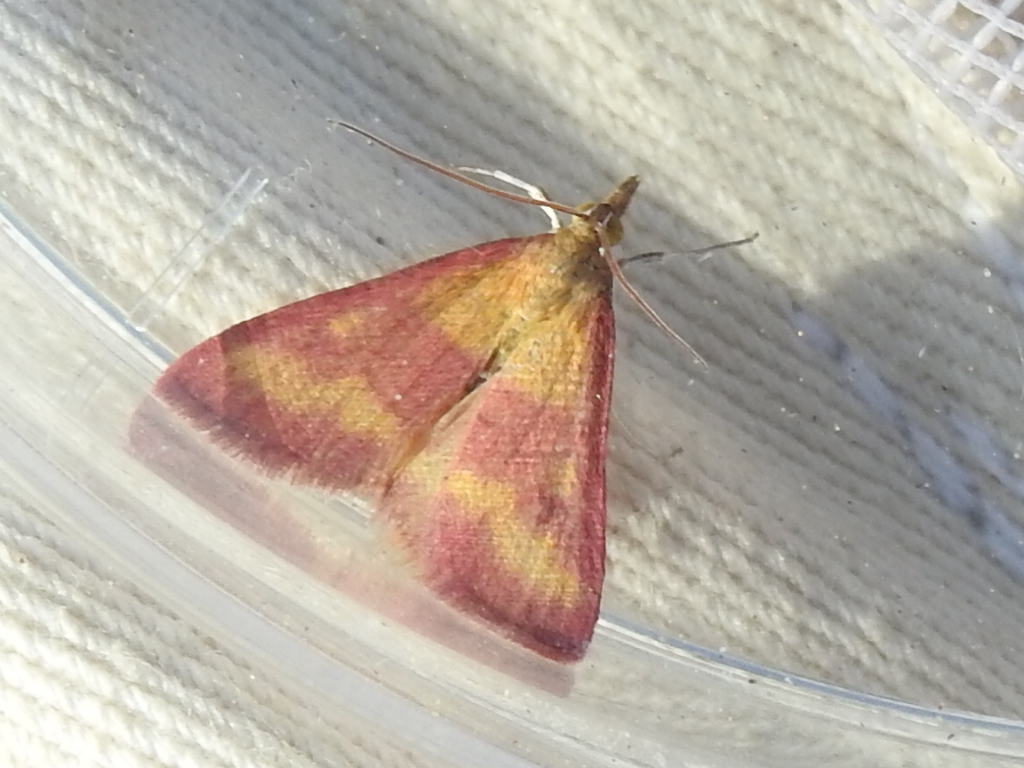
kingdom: Animalia
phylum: Arthropoda
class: Insecta
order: Lepidoptera
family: Crambidae
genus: Pyrausta
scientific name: Pyrausta laticlavia
